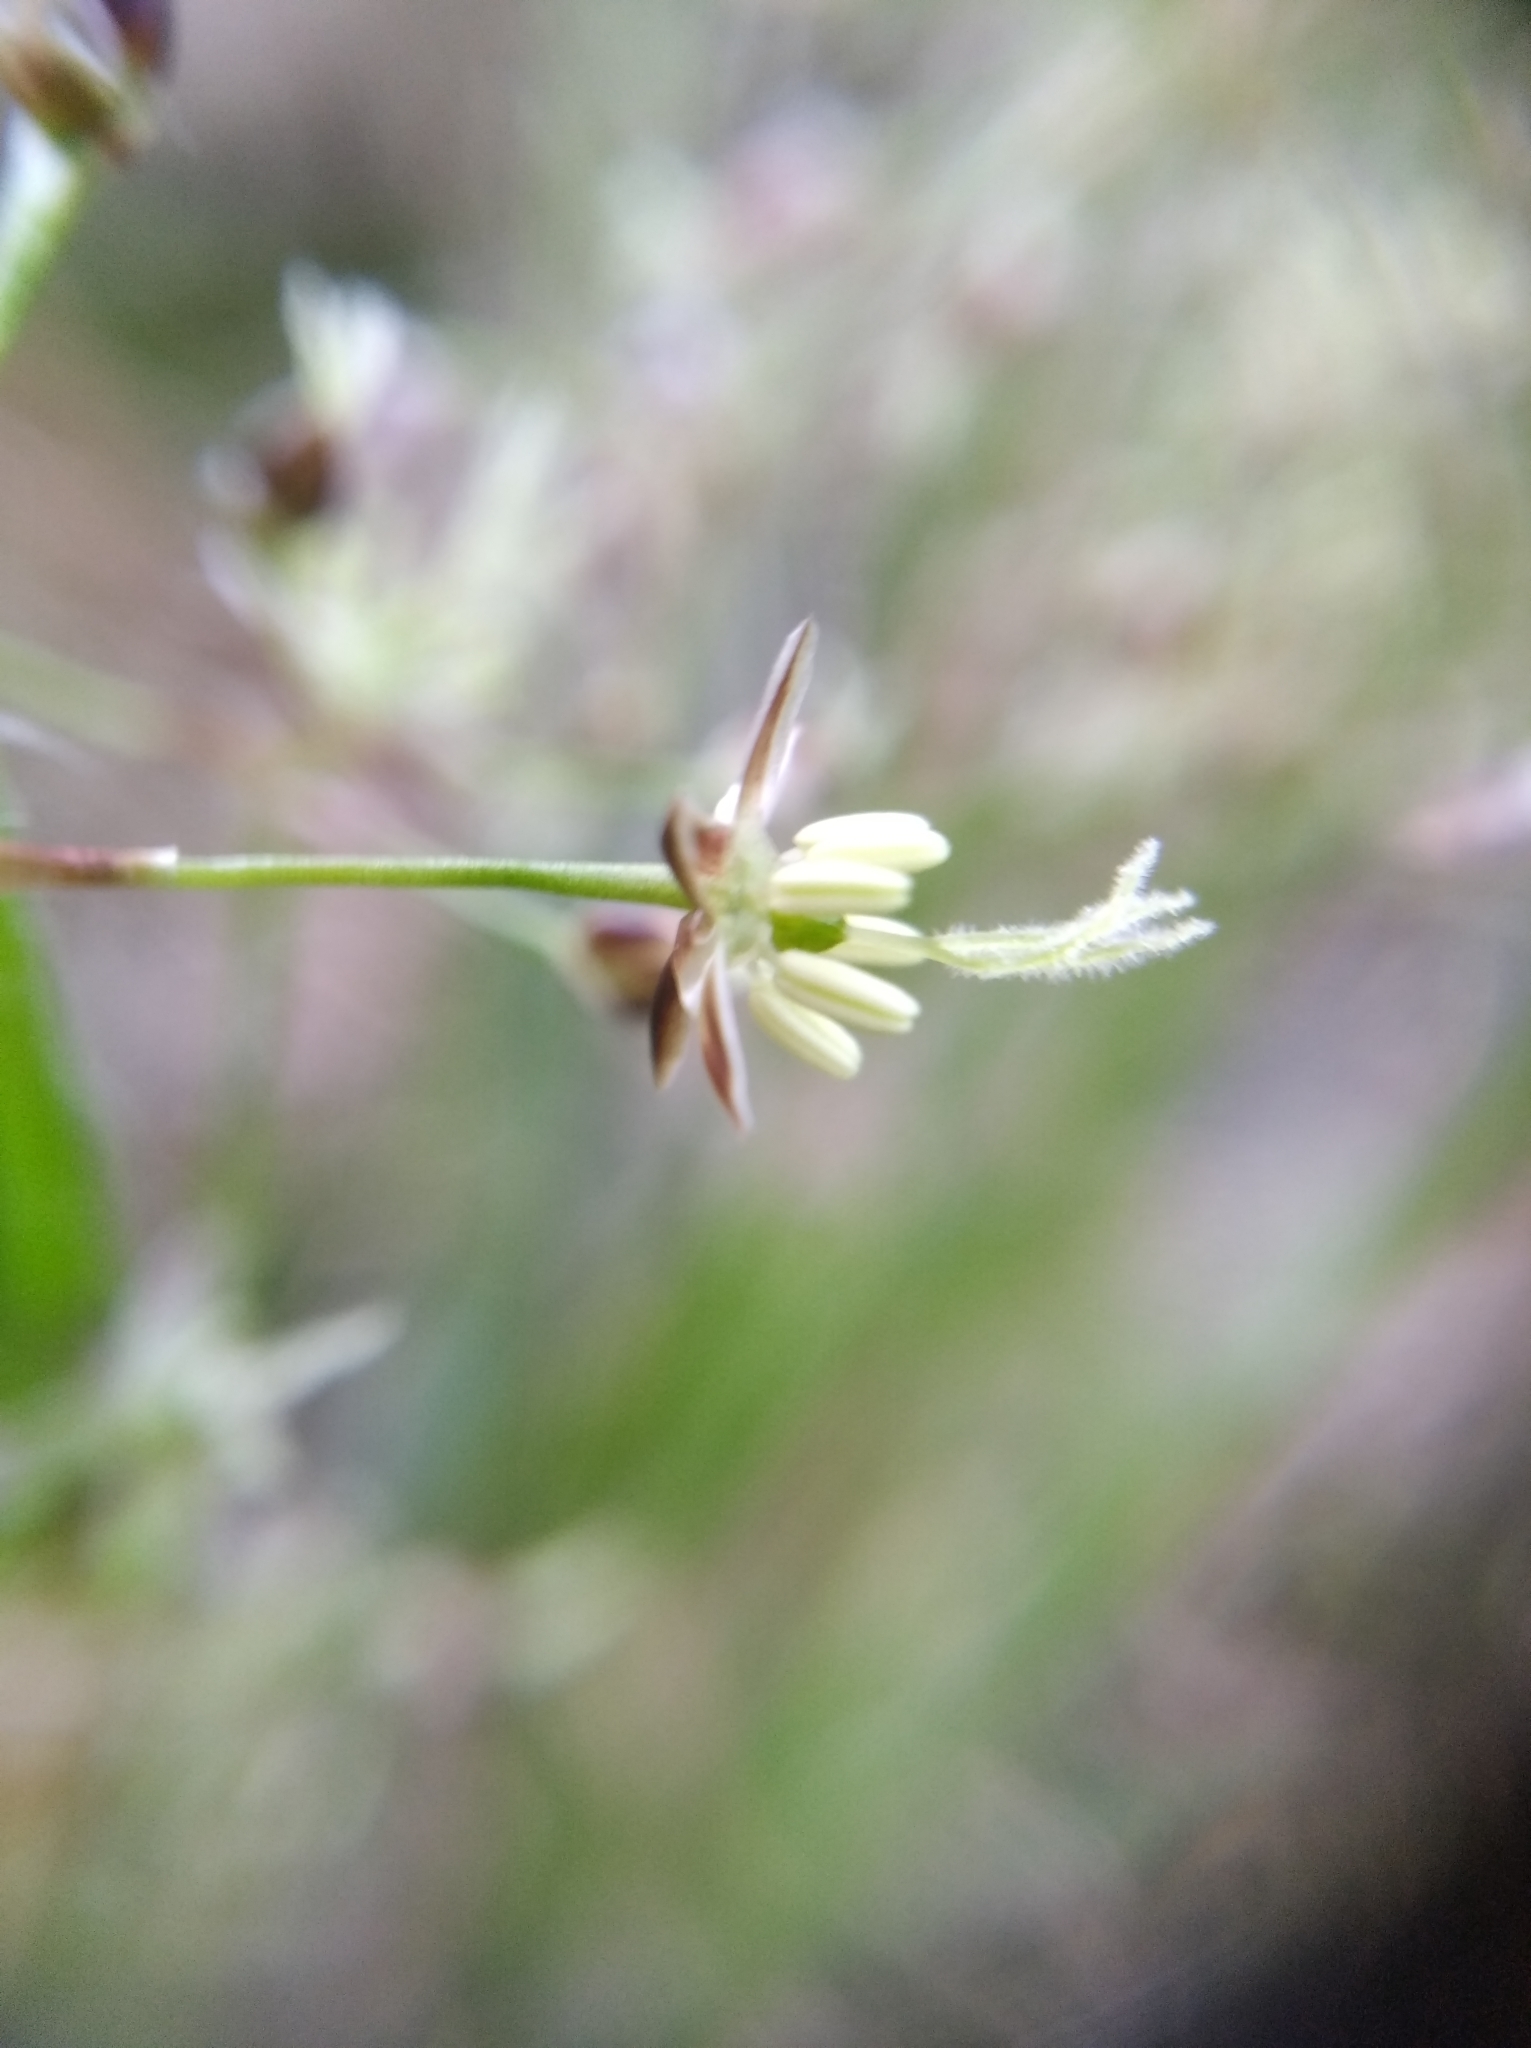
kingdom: Plantae
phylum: Tracheophyta
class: Liliopsida
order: Poales
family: Juncaceae
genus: Luzula
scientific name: Luzula pilosa
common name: Hairy wood-rush
